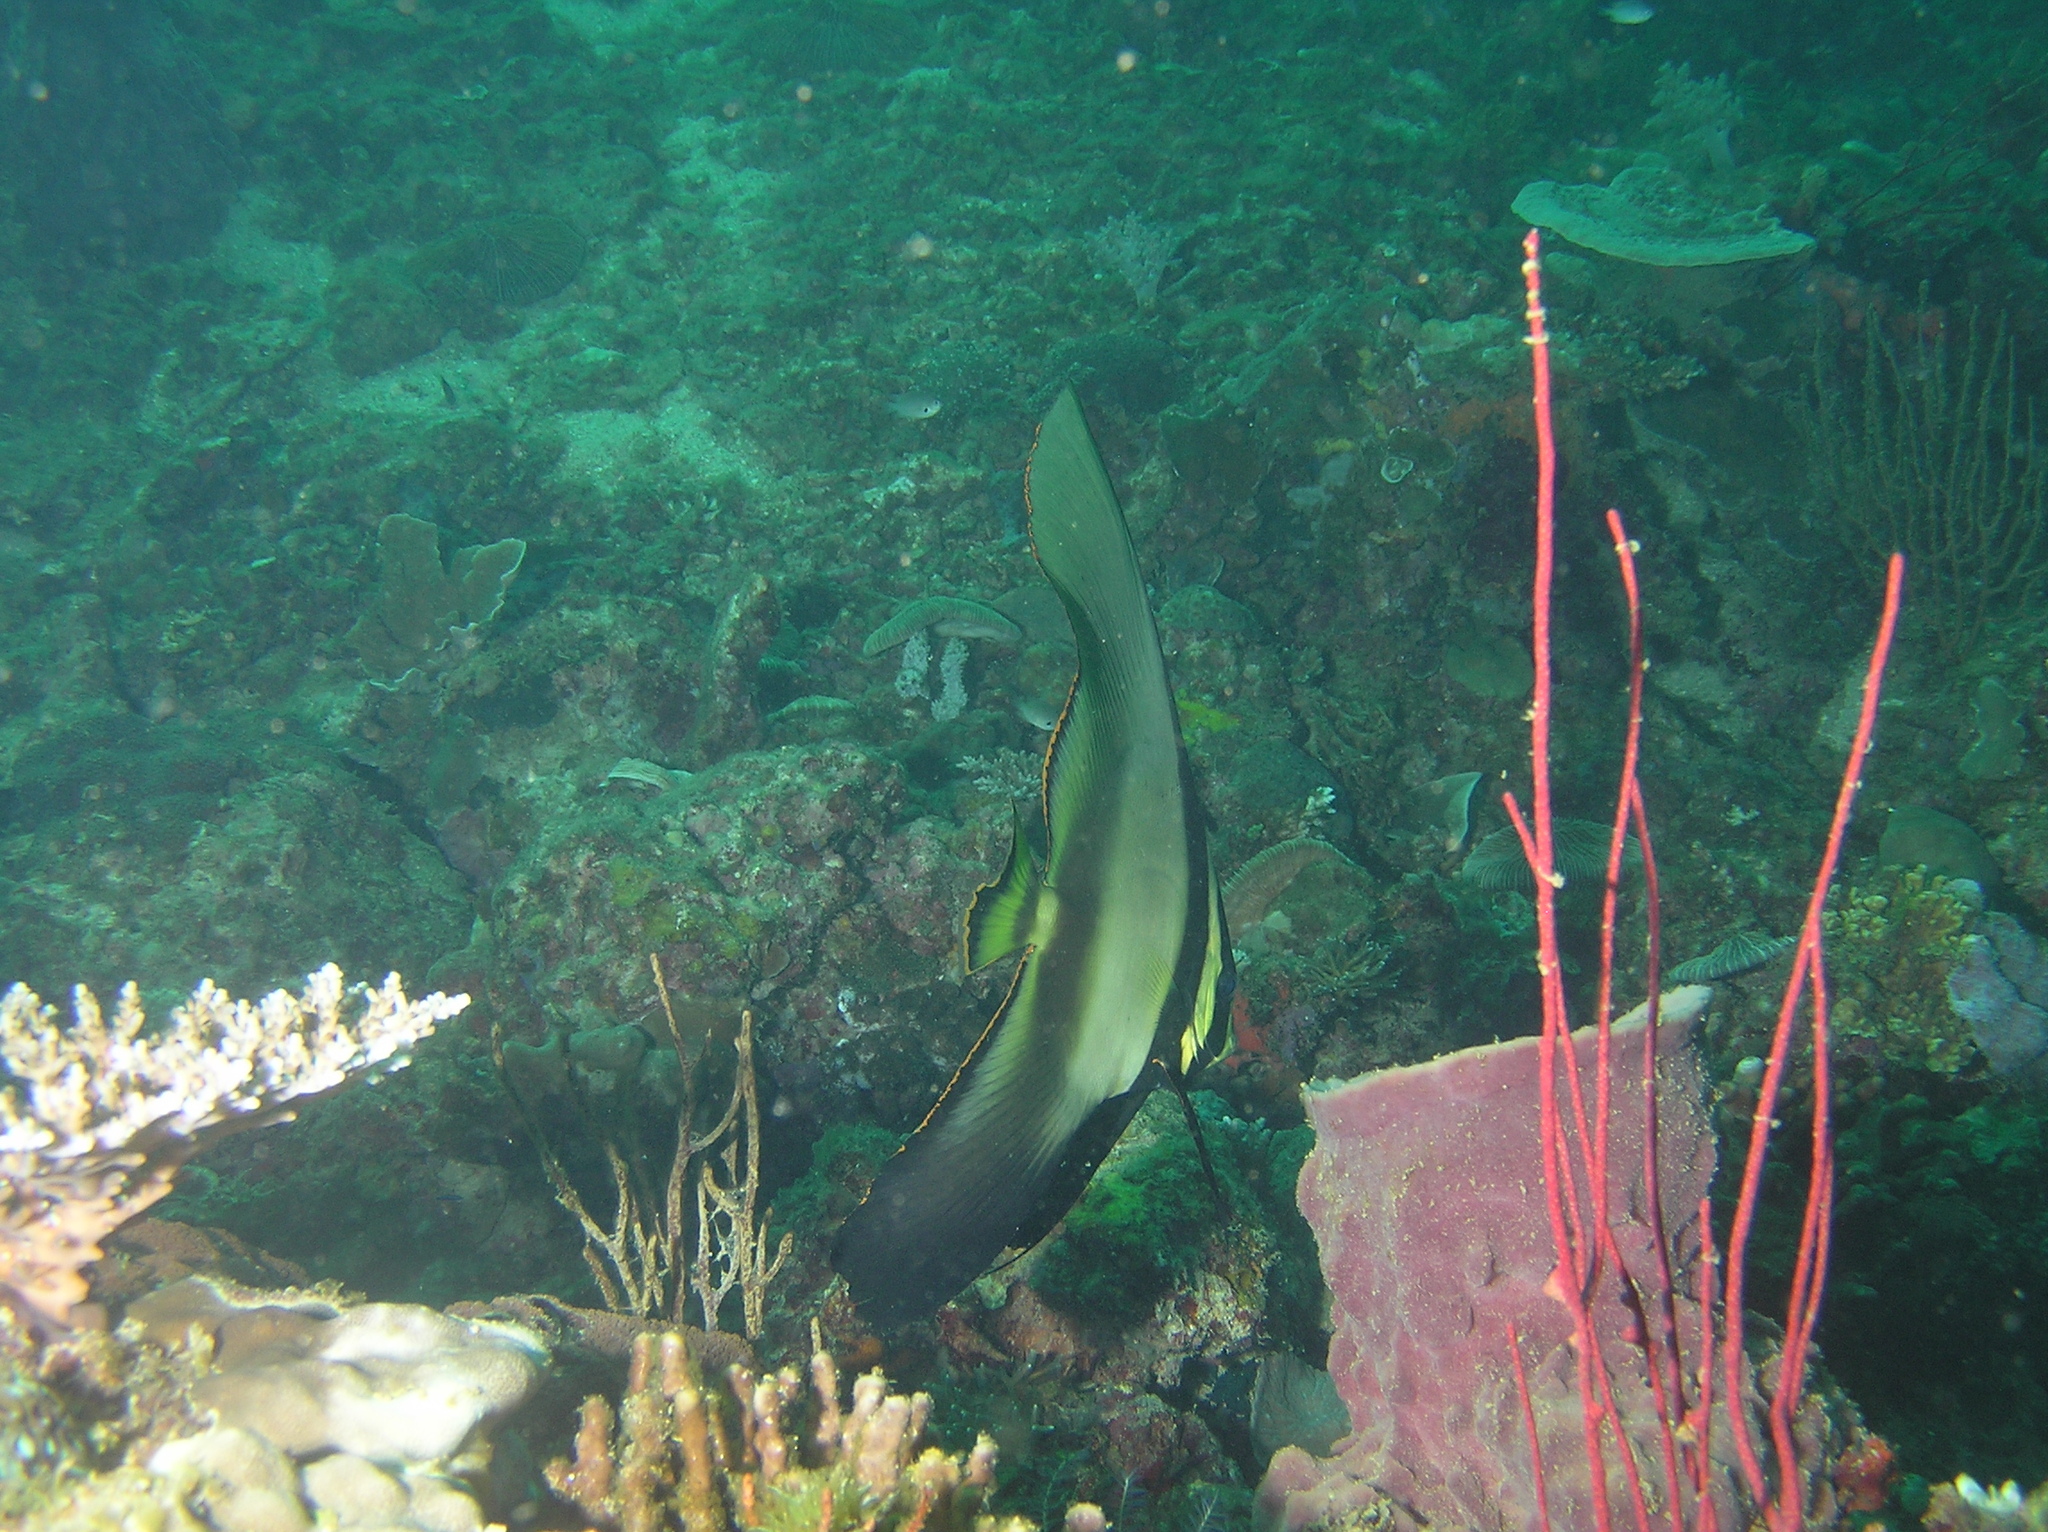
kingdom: Animalia
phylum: Chordata
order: Perciformes
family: Ephippidae
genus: Platax
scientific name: Platax pinnatus
